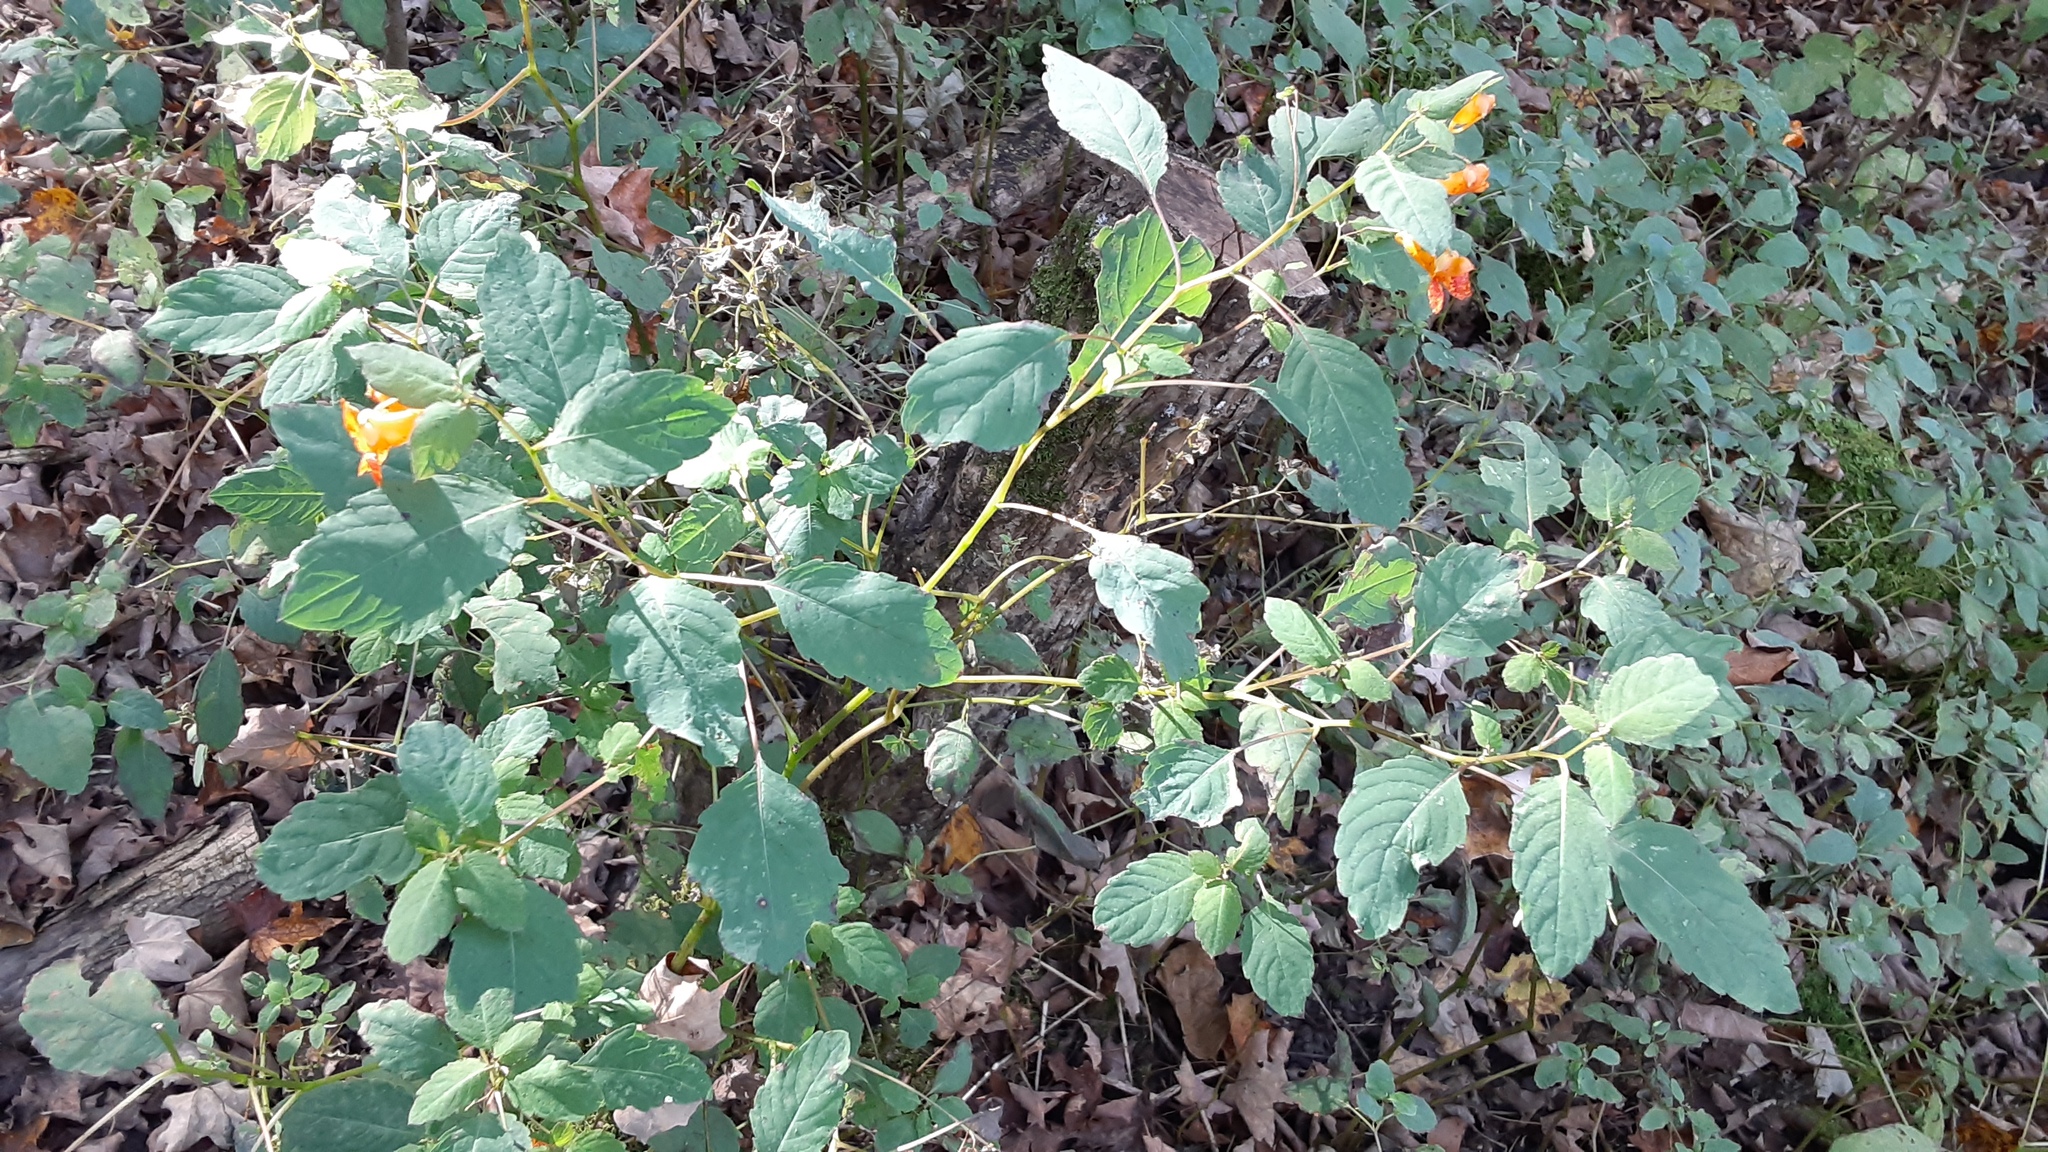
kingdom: Plantae
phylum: Tracheophyta
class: Magnoliopsida
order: Ericales
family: Balsaminaceae
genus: Impatiens
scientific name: Impatiens capensis
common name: Orange balsam
